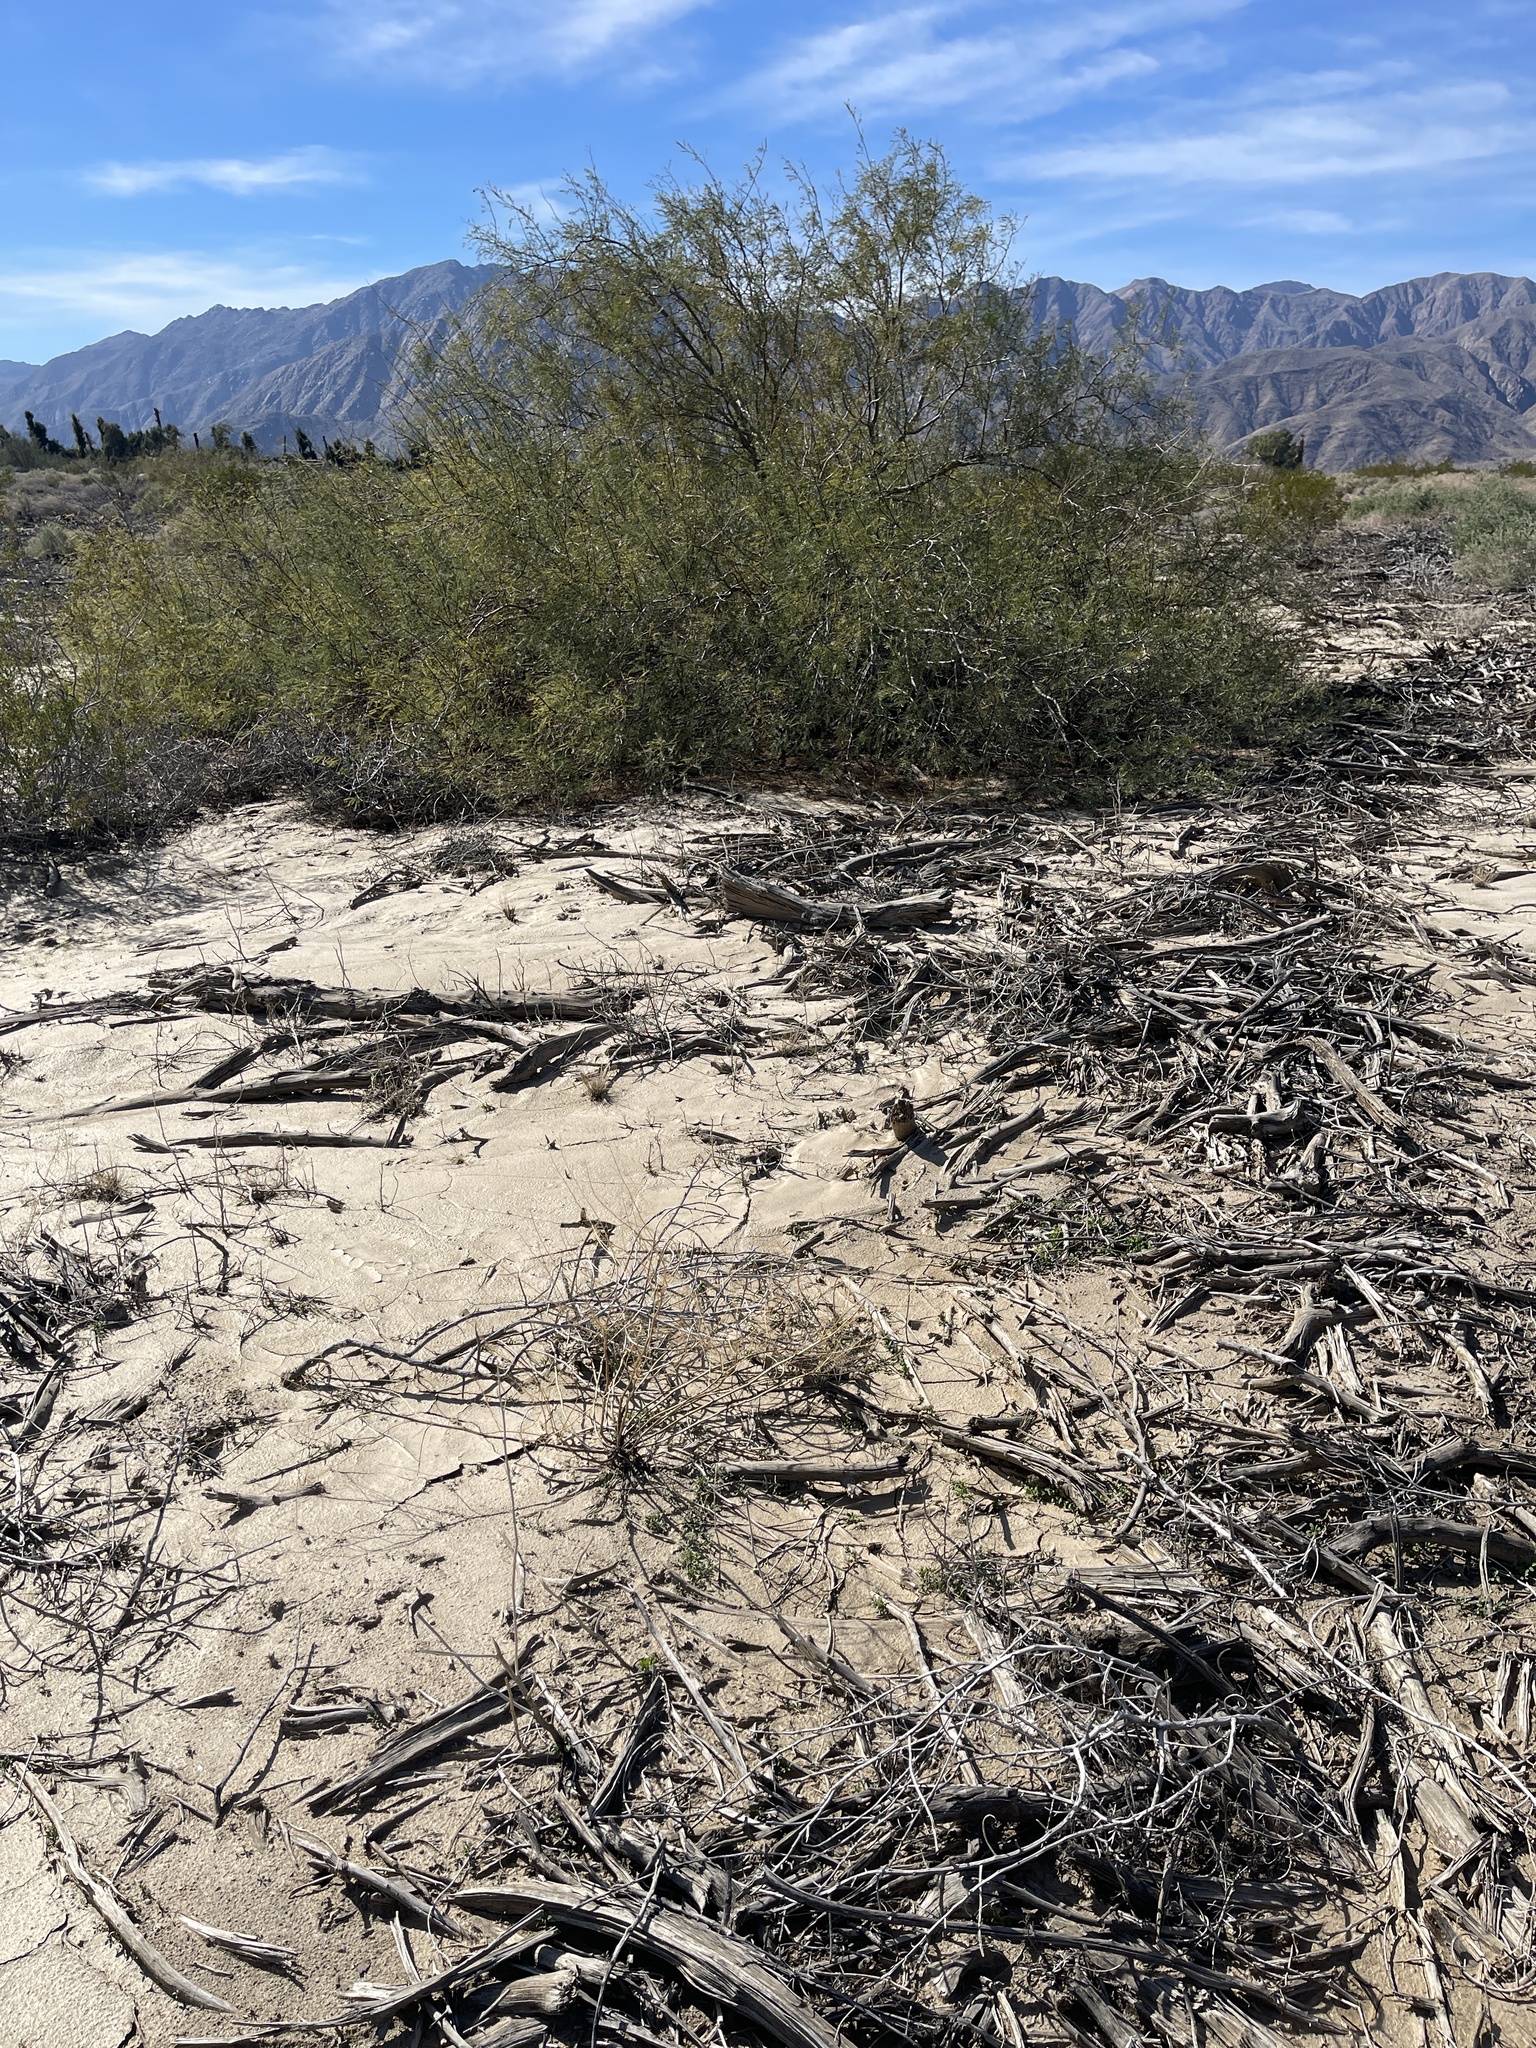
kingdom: Plantae
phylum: Tracheophyta
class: Magnoliopsida
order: Fabales
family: Fabaceae
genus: Prosopis
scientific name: Prosopis pubescens
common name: Screw-bean
